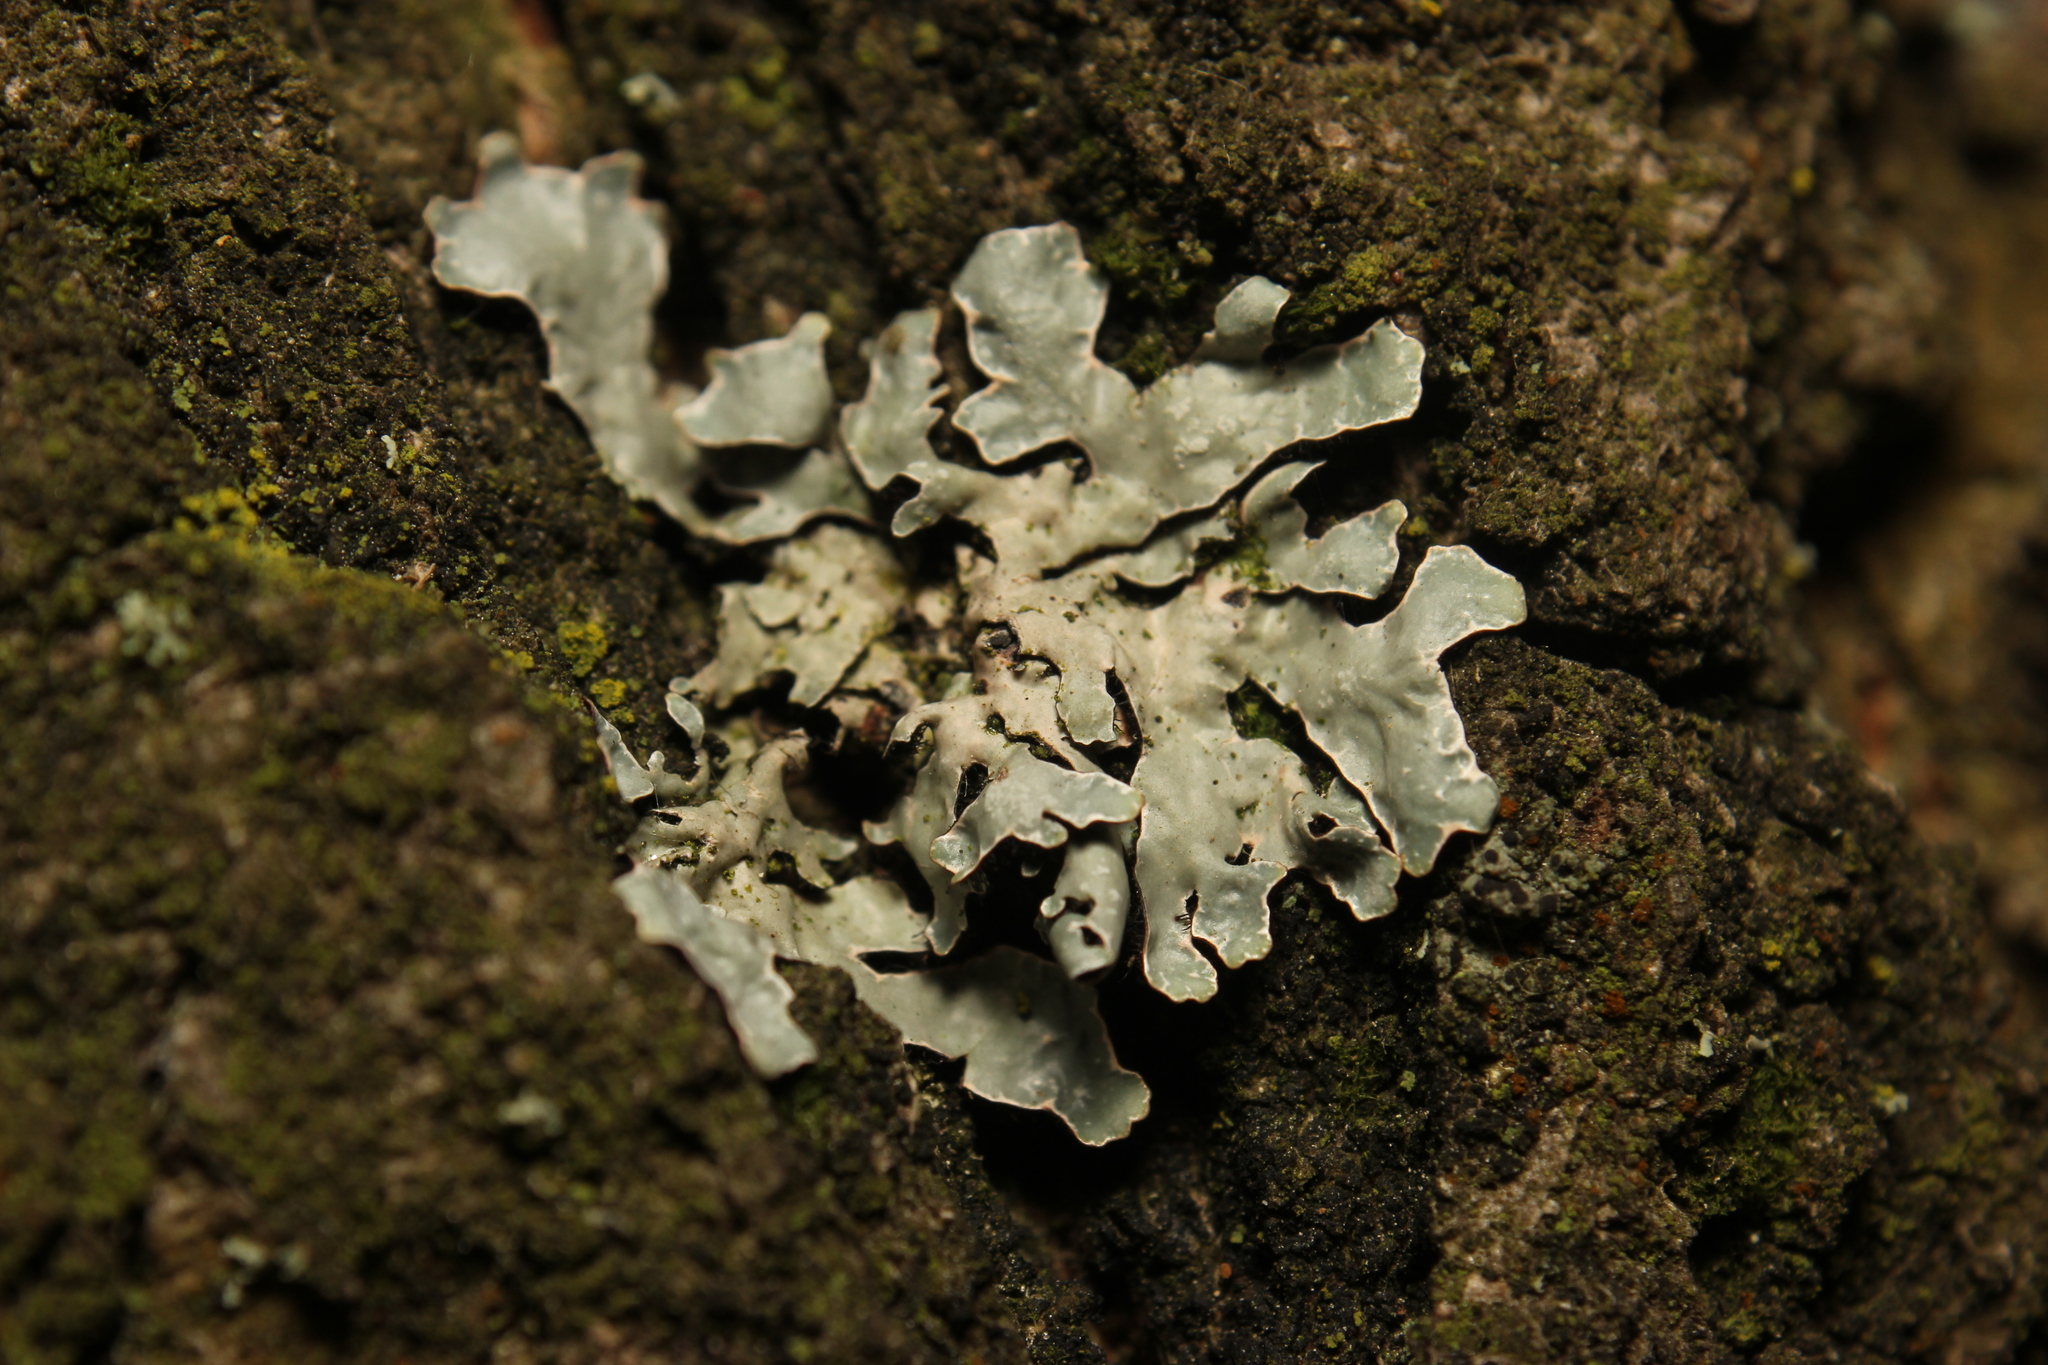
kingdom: Fungi
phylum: Ascomycota
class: Lecanoromycetes
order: Lecanorales
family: Parmeliaceae
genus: Parmelia
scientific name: Parmelia sulcata
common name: Netted shield lichen
